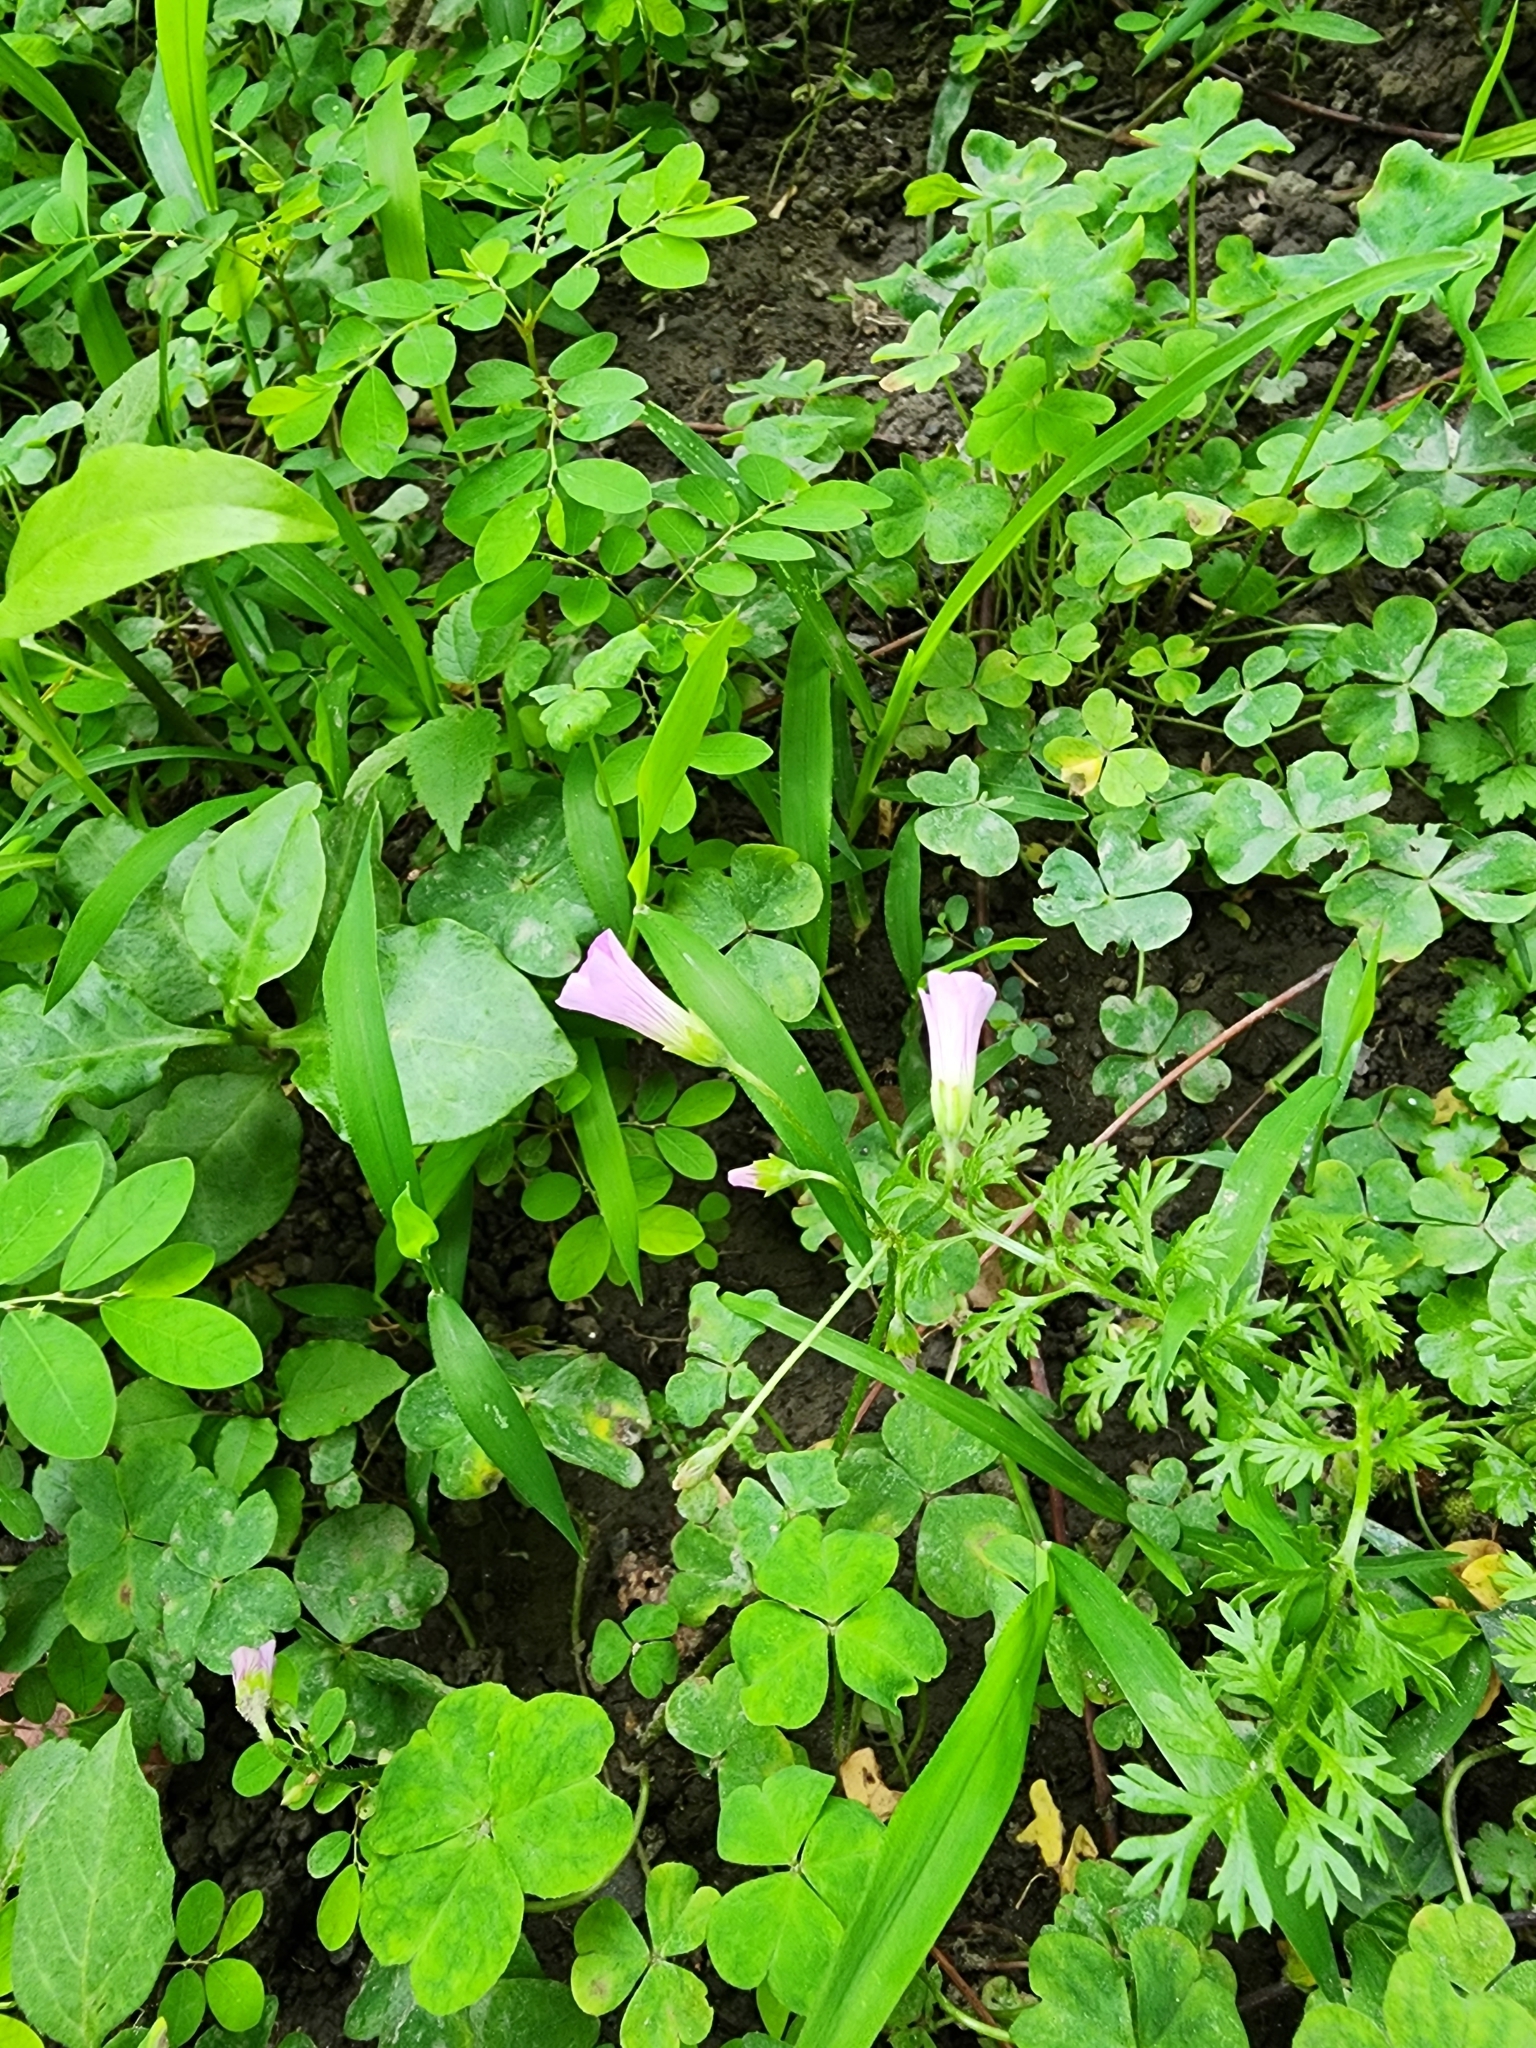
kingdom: Plantae
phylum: Tracheophyta
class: Magnoliopsida
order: Oxalidales
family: Oxalidaceae
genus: Oxalis
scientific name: Oxalis debilis
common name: Large-flowered pink-sorrel
